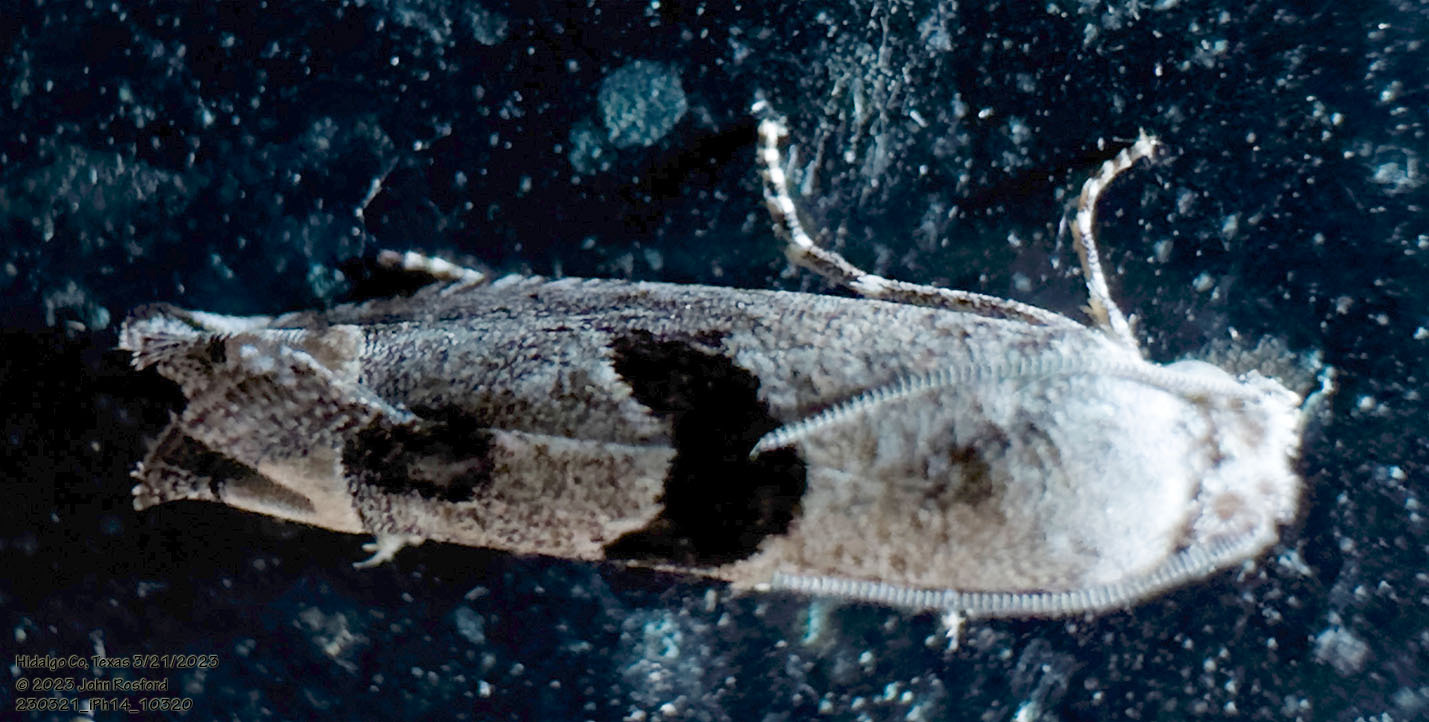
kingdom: Animalia
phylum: Arthropoda
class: Insecta
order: Lepidoptera
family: Tortricidae
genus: Suleima
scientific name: Suleima helianthana
